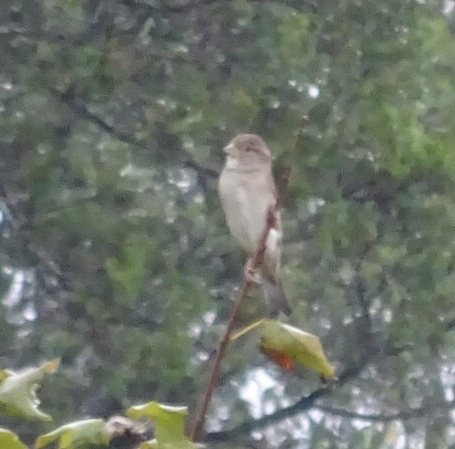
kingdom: Animalia
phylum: Chordata
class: Aves
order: Passeriformes
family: Passeridae
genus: Passer
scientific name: Passer domesticus
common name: House sparrow
